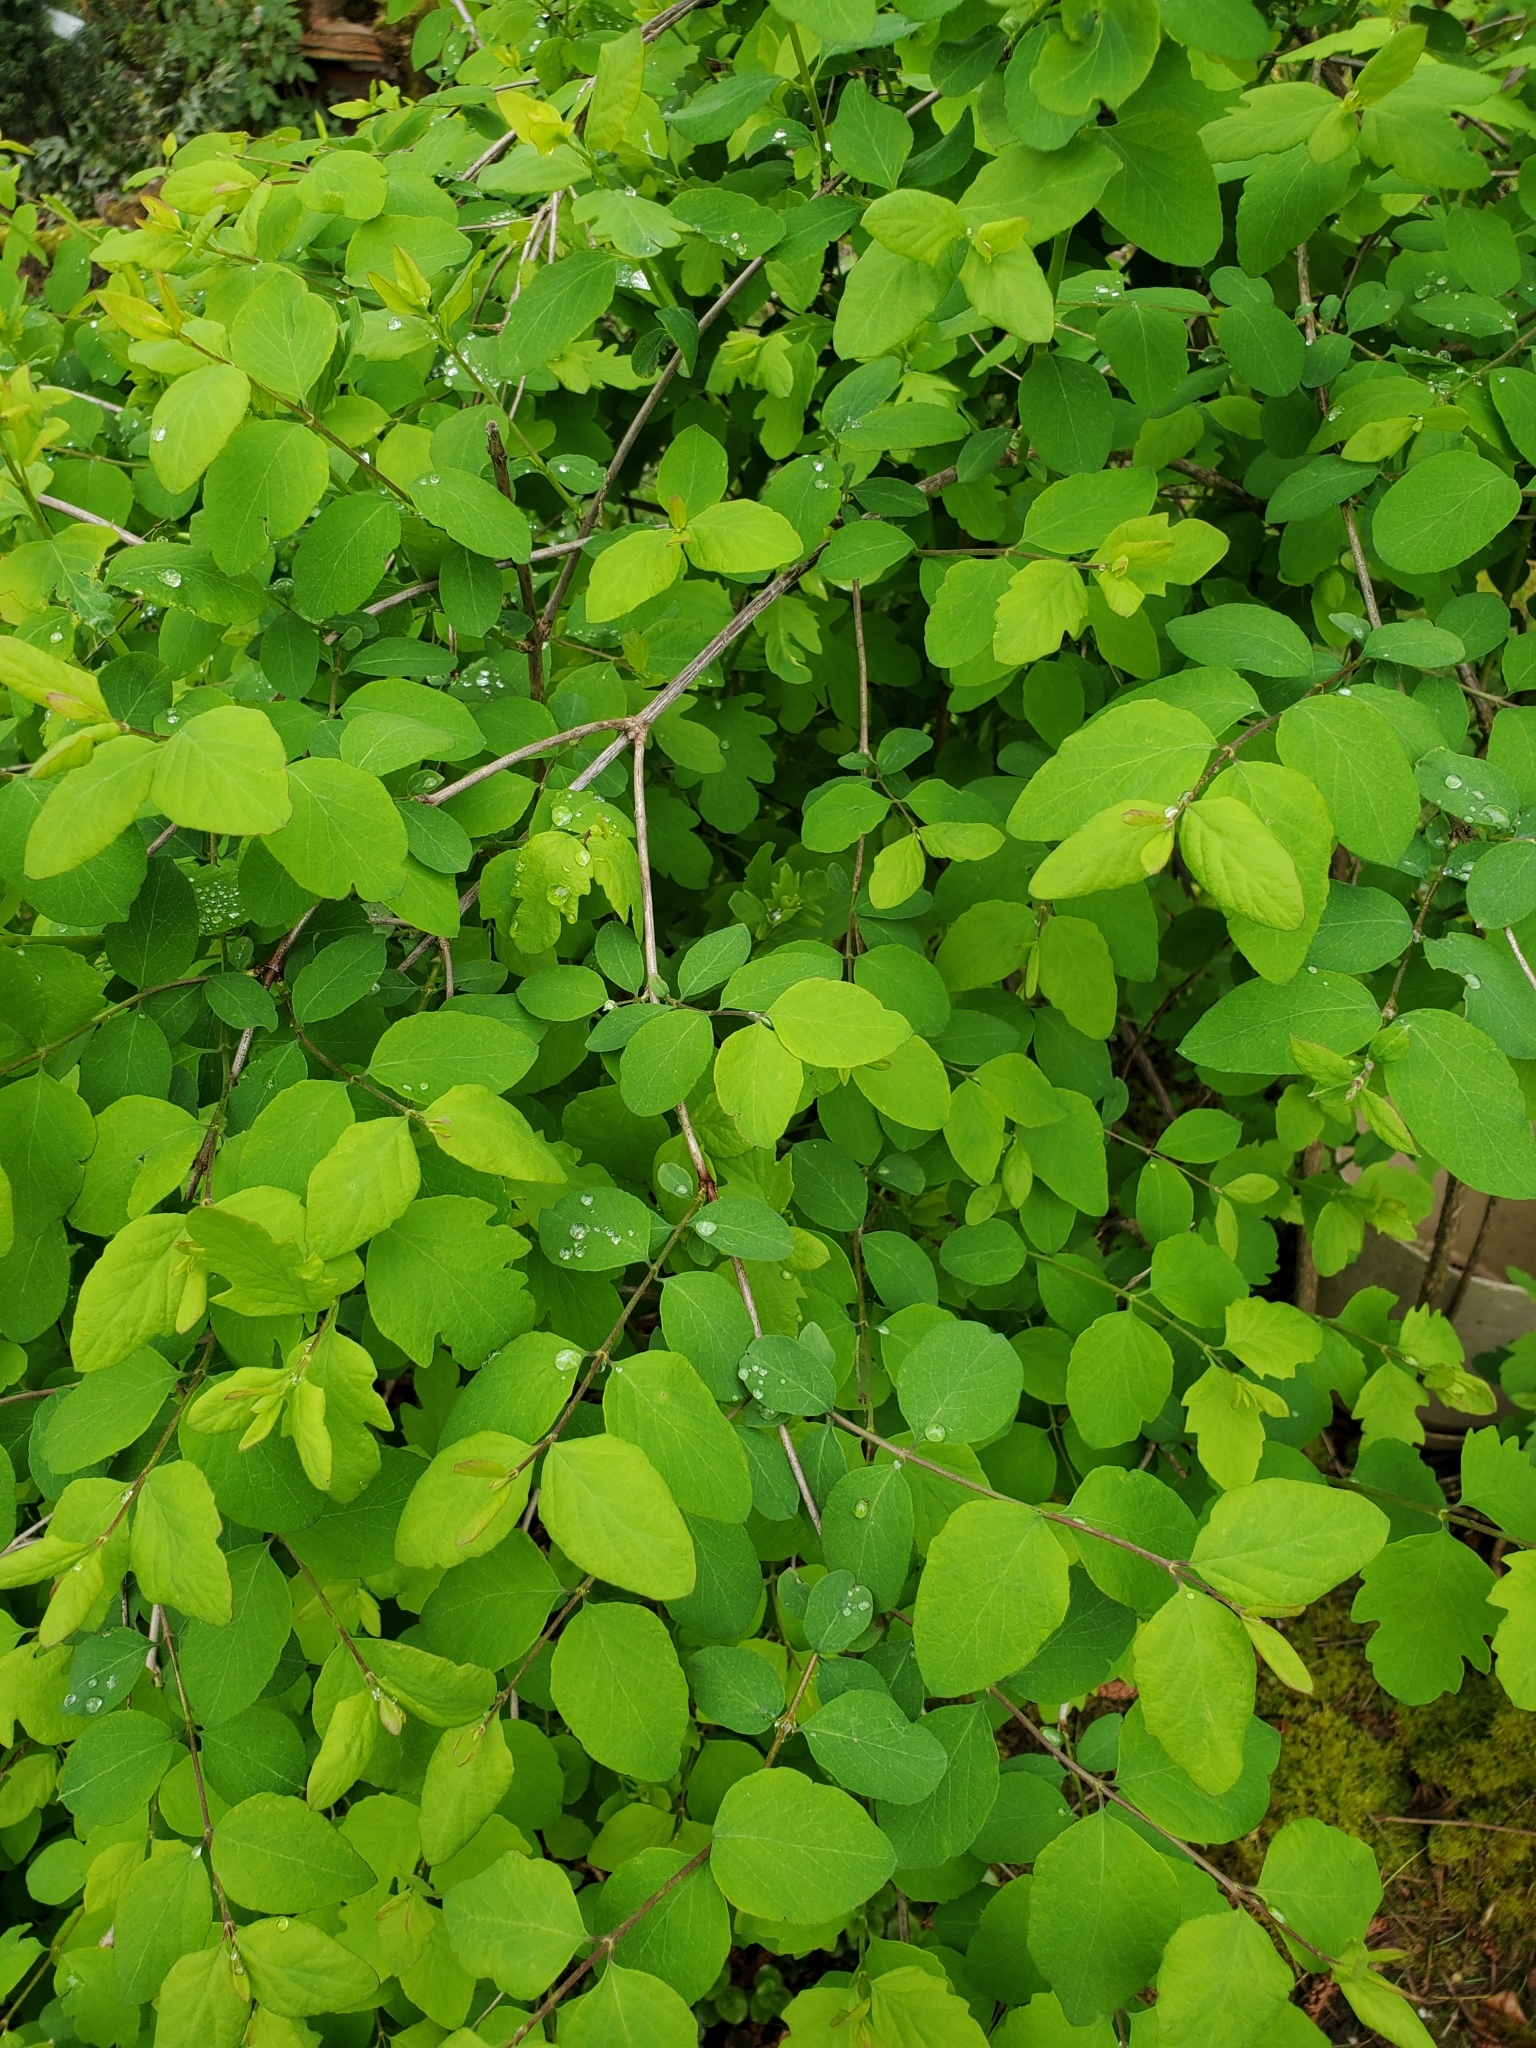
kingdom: Plantae
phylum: Tracheophyta
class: Magnoliopsida
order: Dipsacales
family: Caprifoliaceae
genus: Symphoricarpos
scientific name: Symphoricarpos albus
